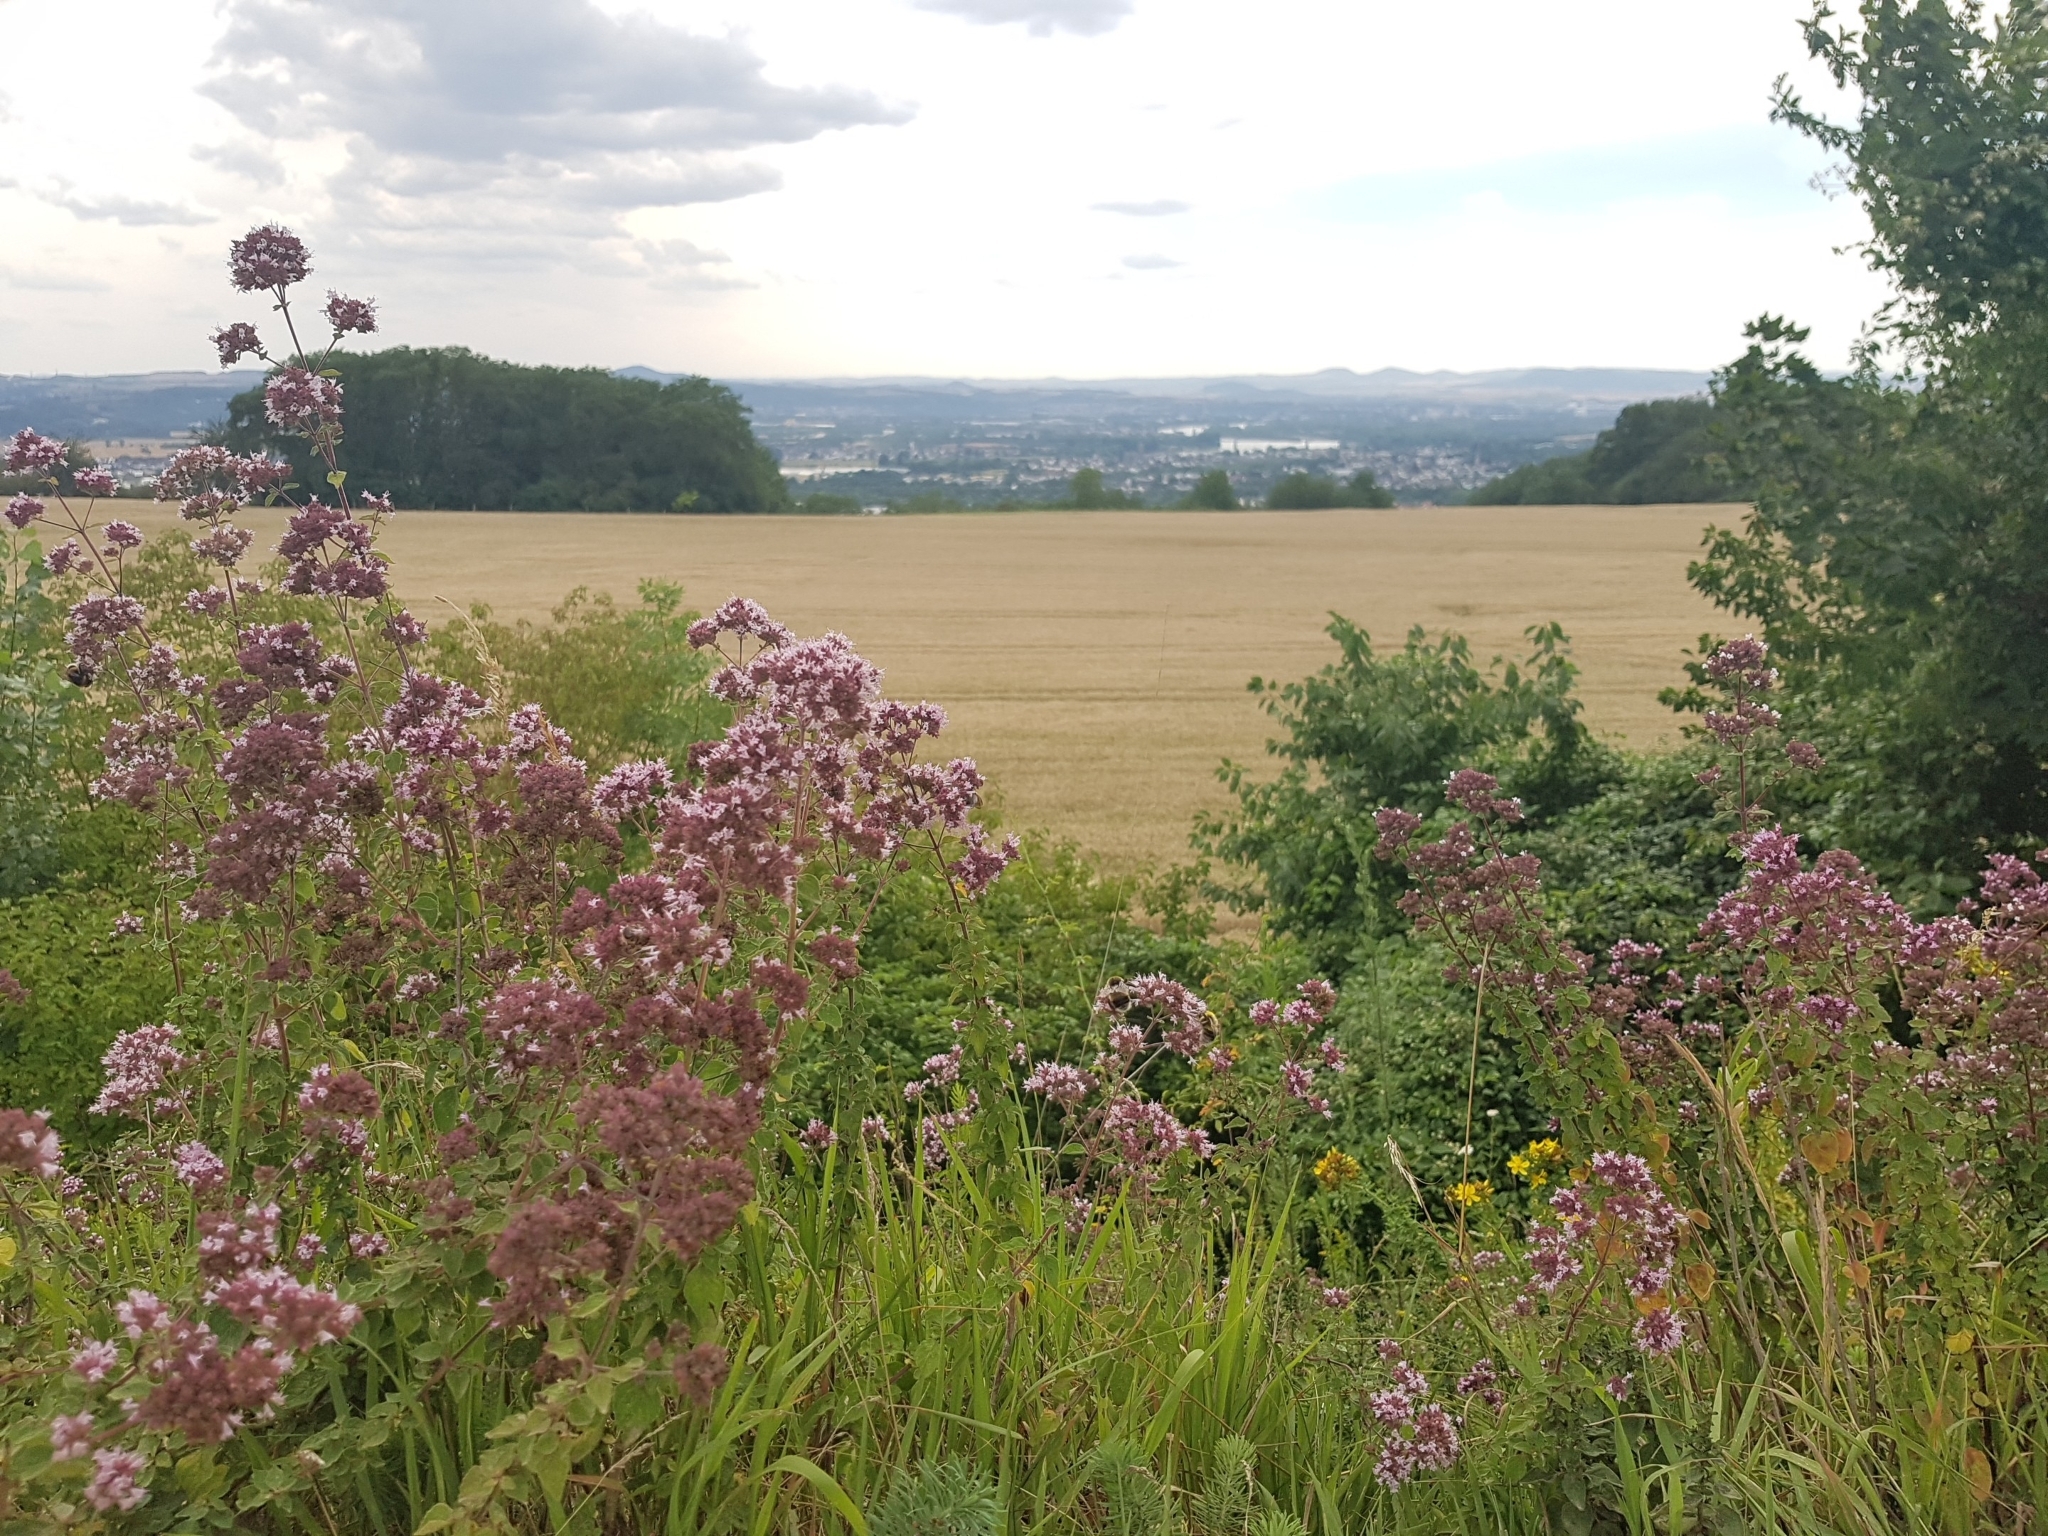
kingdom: Plantae
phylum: Tracheophyta
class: Magnoliopsida
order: Lamiales
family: Lamiaceae
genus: Origanum
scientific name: Origanum vulgare
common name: Wild marjoram
